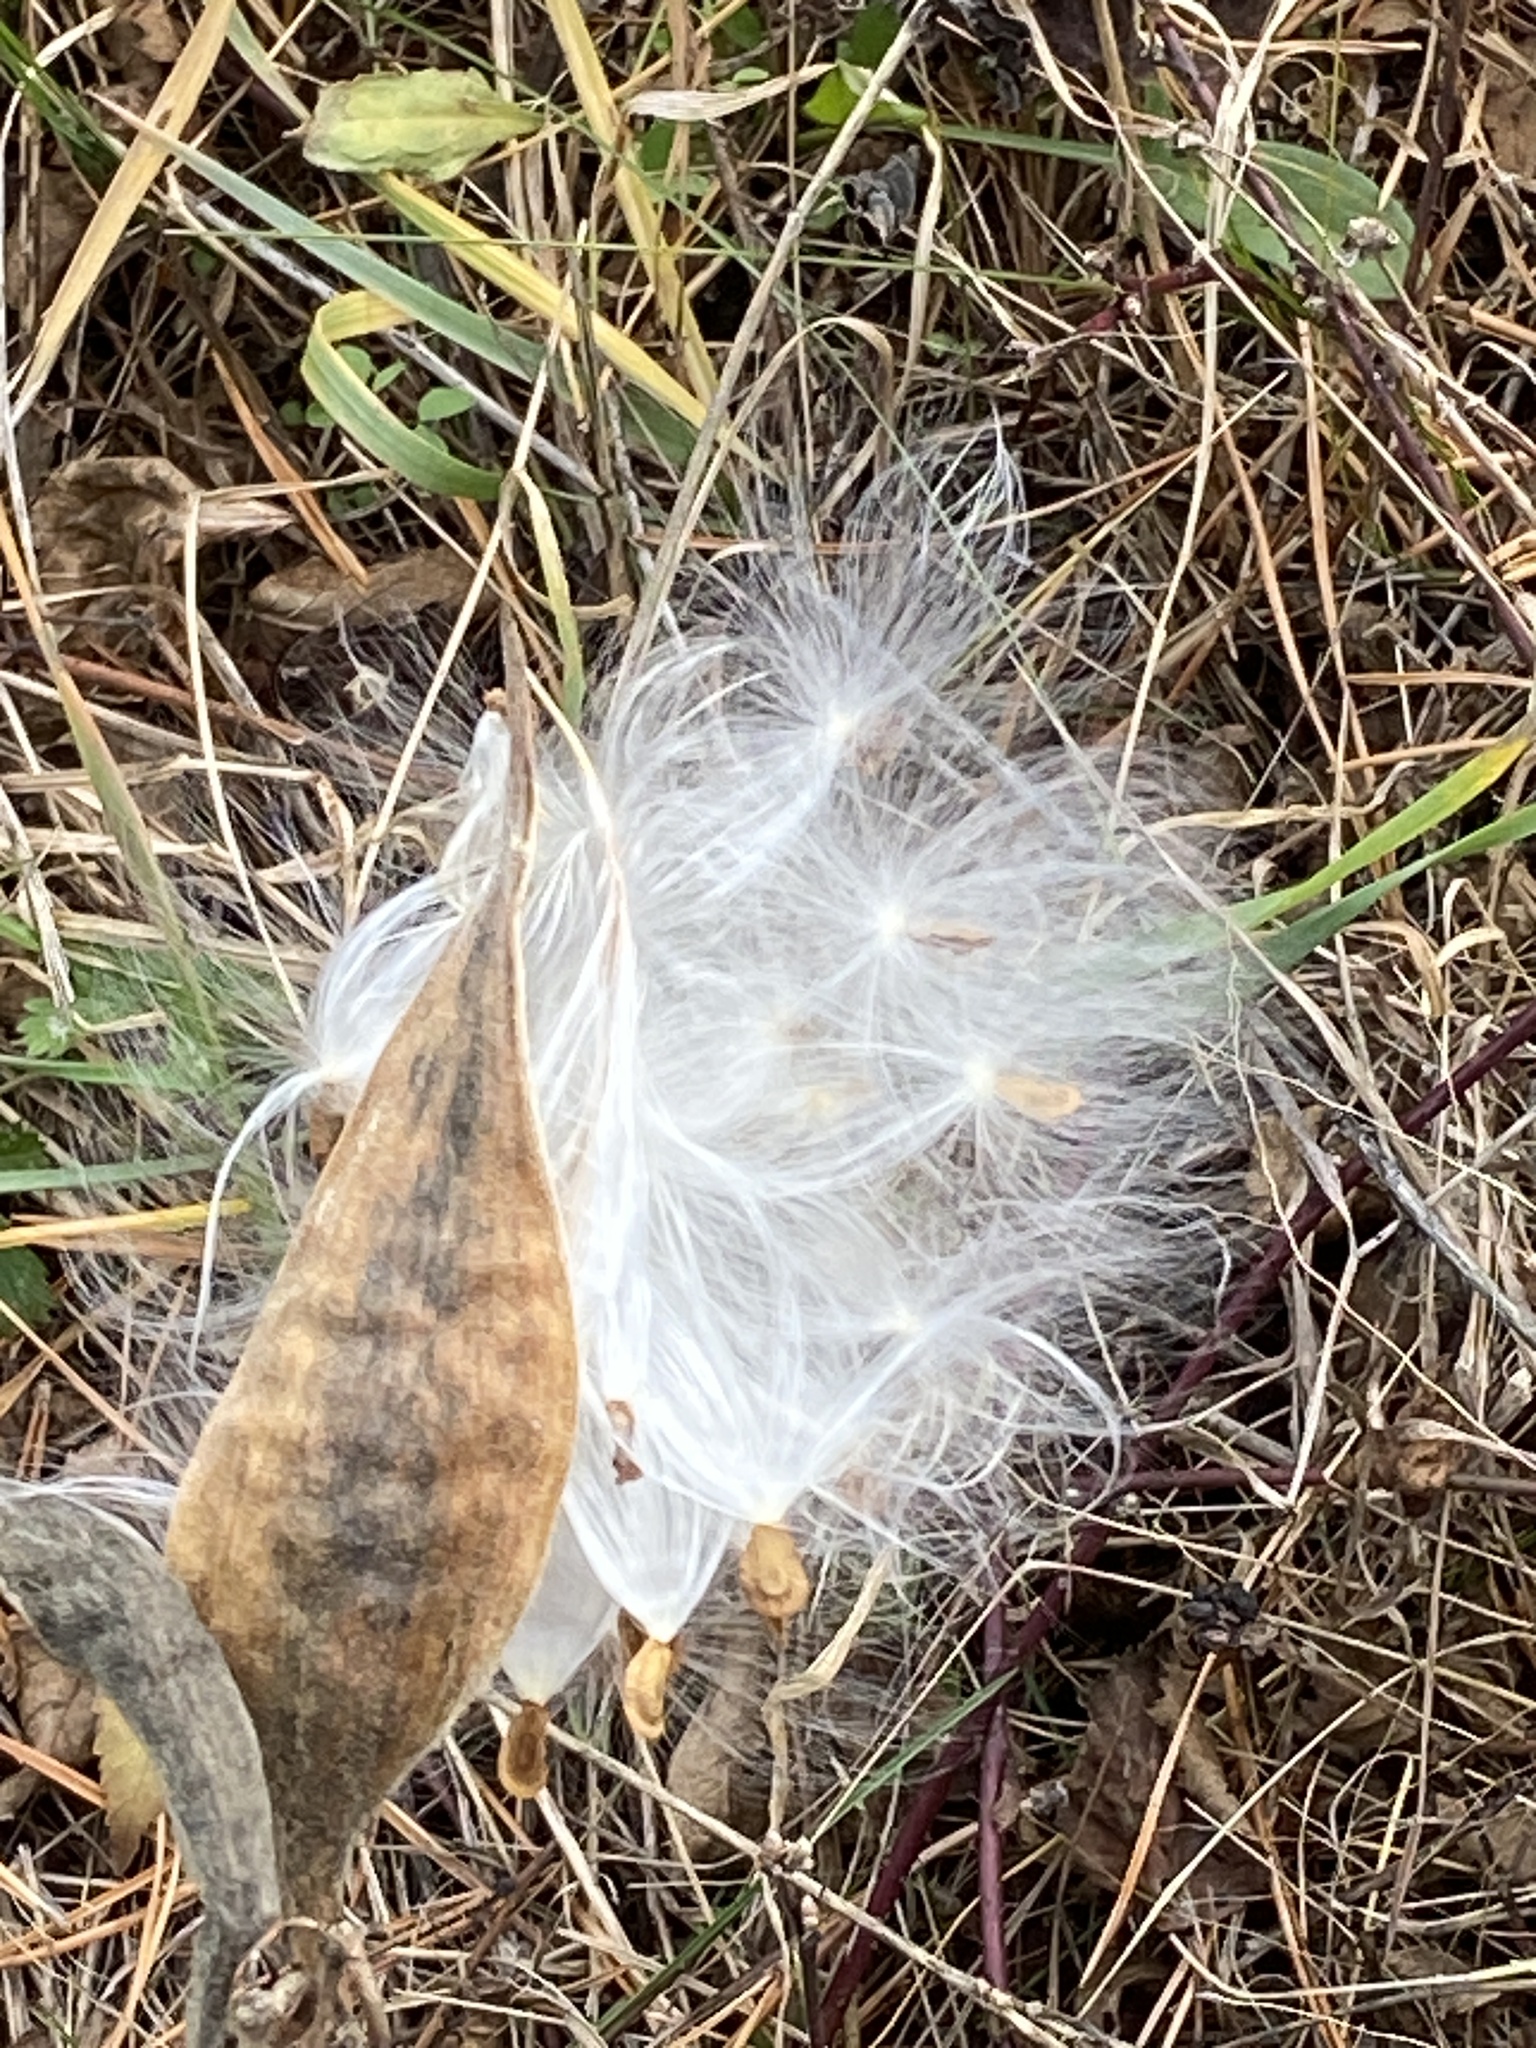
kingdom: Plantae
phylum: Tracheophyta
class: Magnoliopsida
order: Gentianales
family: Apocynaceae
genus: Asclepias
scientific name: Asclepias syriaca
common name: Common milkweed
